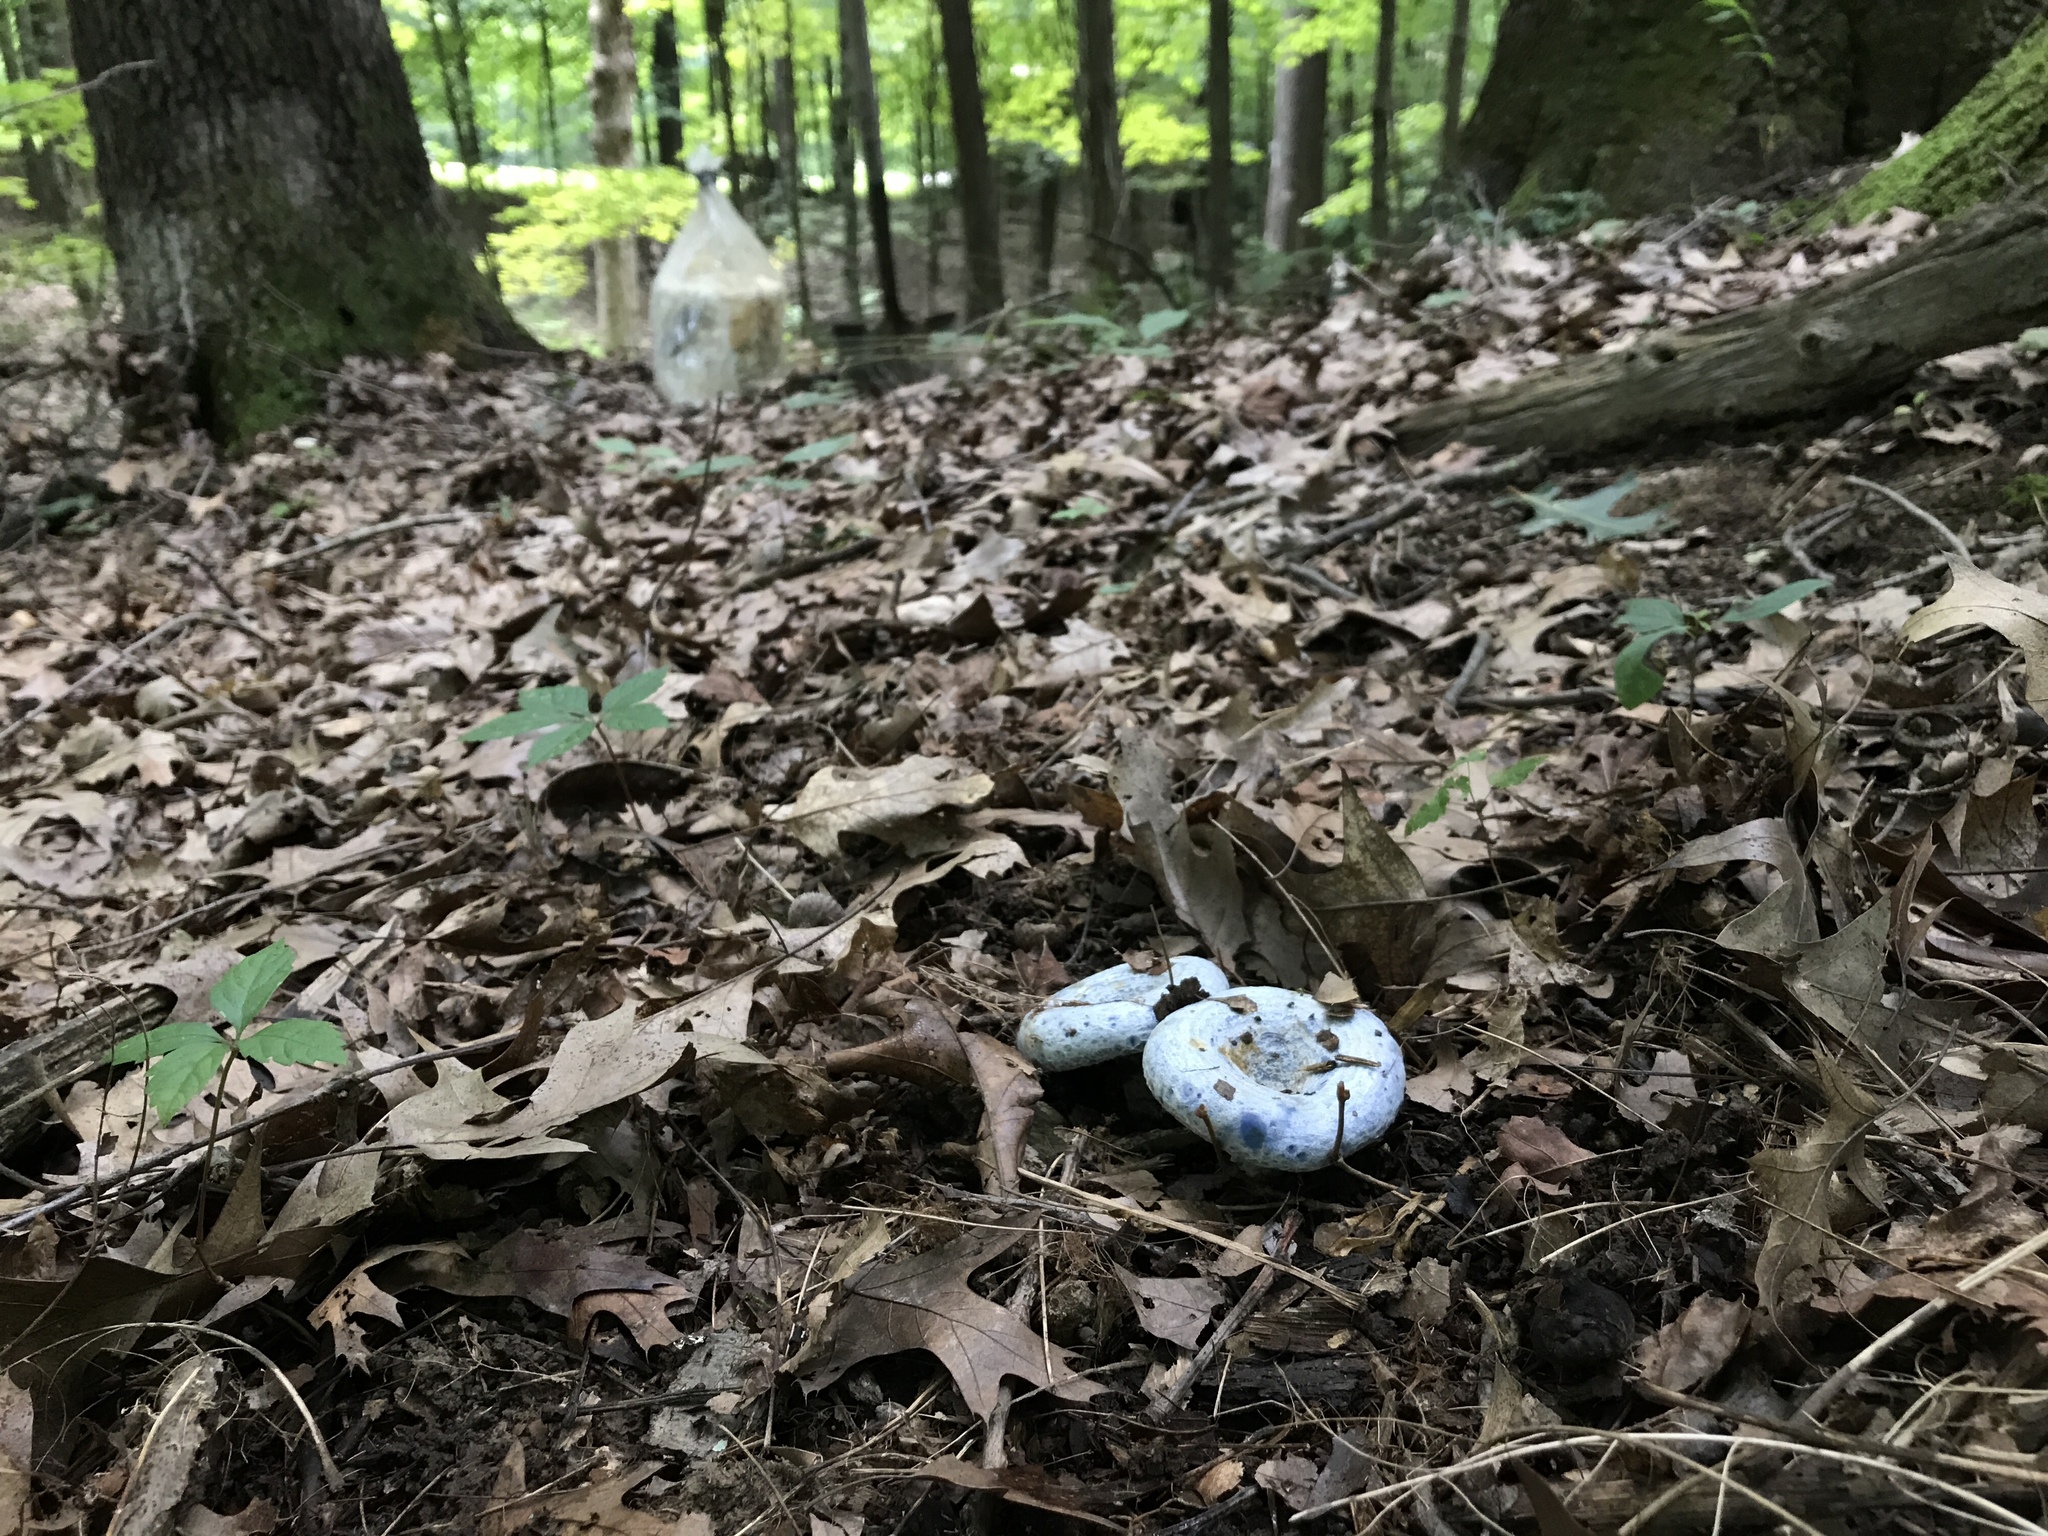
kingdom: Fungi
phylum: Basidiomycota
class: Agaricomycetes
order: Russulales
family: Russulaceae
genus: Lactarius
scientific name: Lactarius indigo
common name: Indigo milk cap
